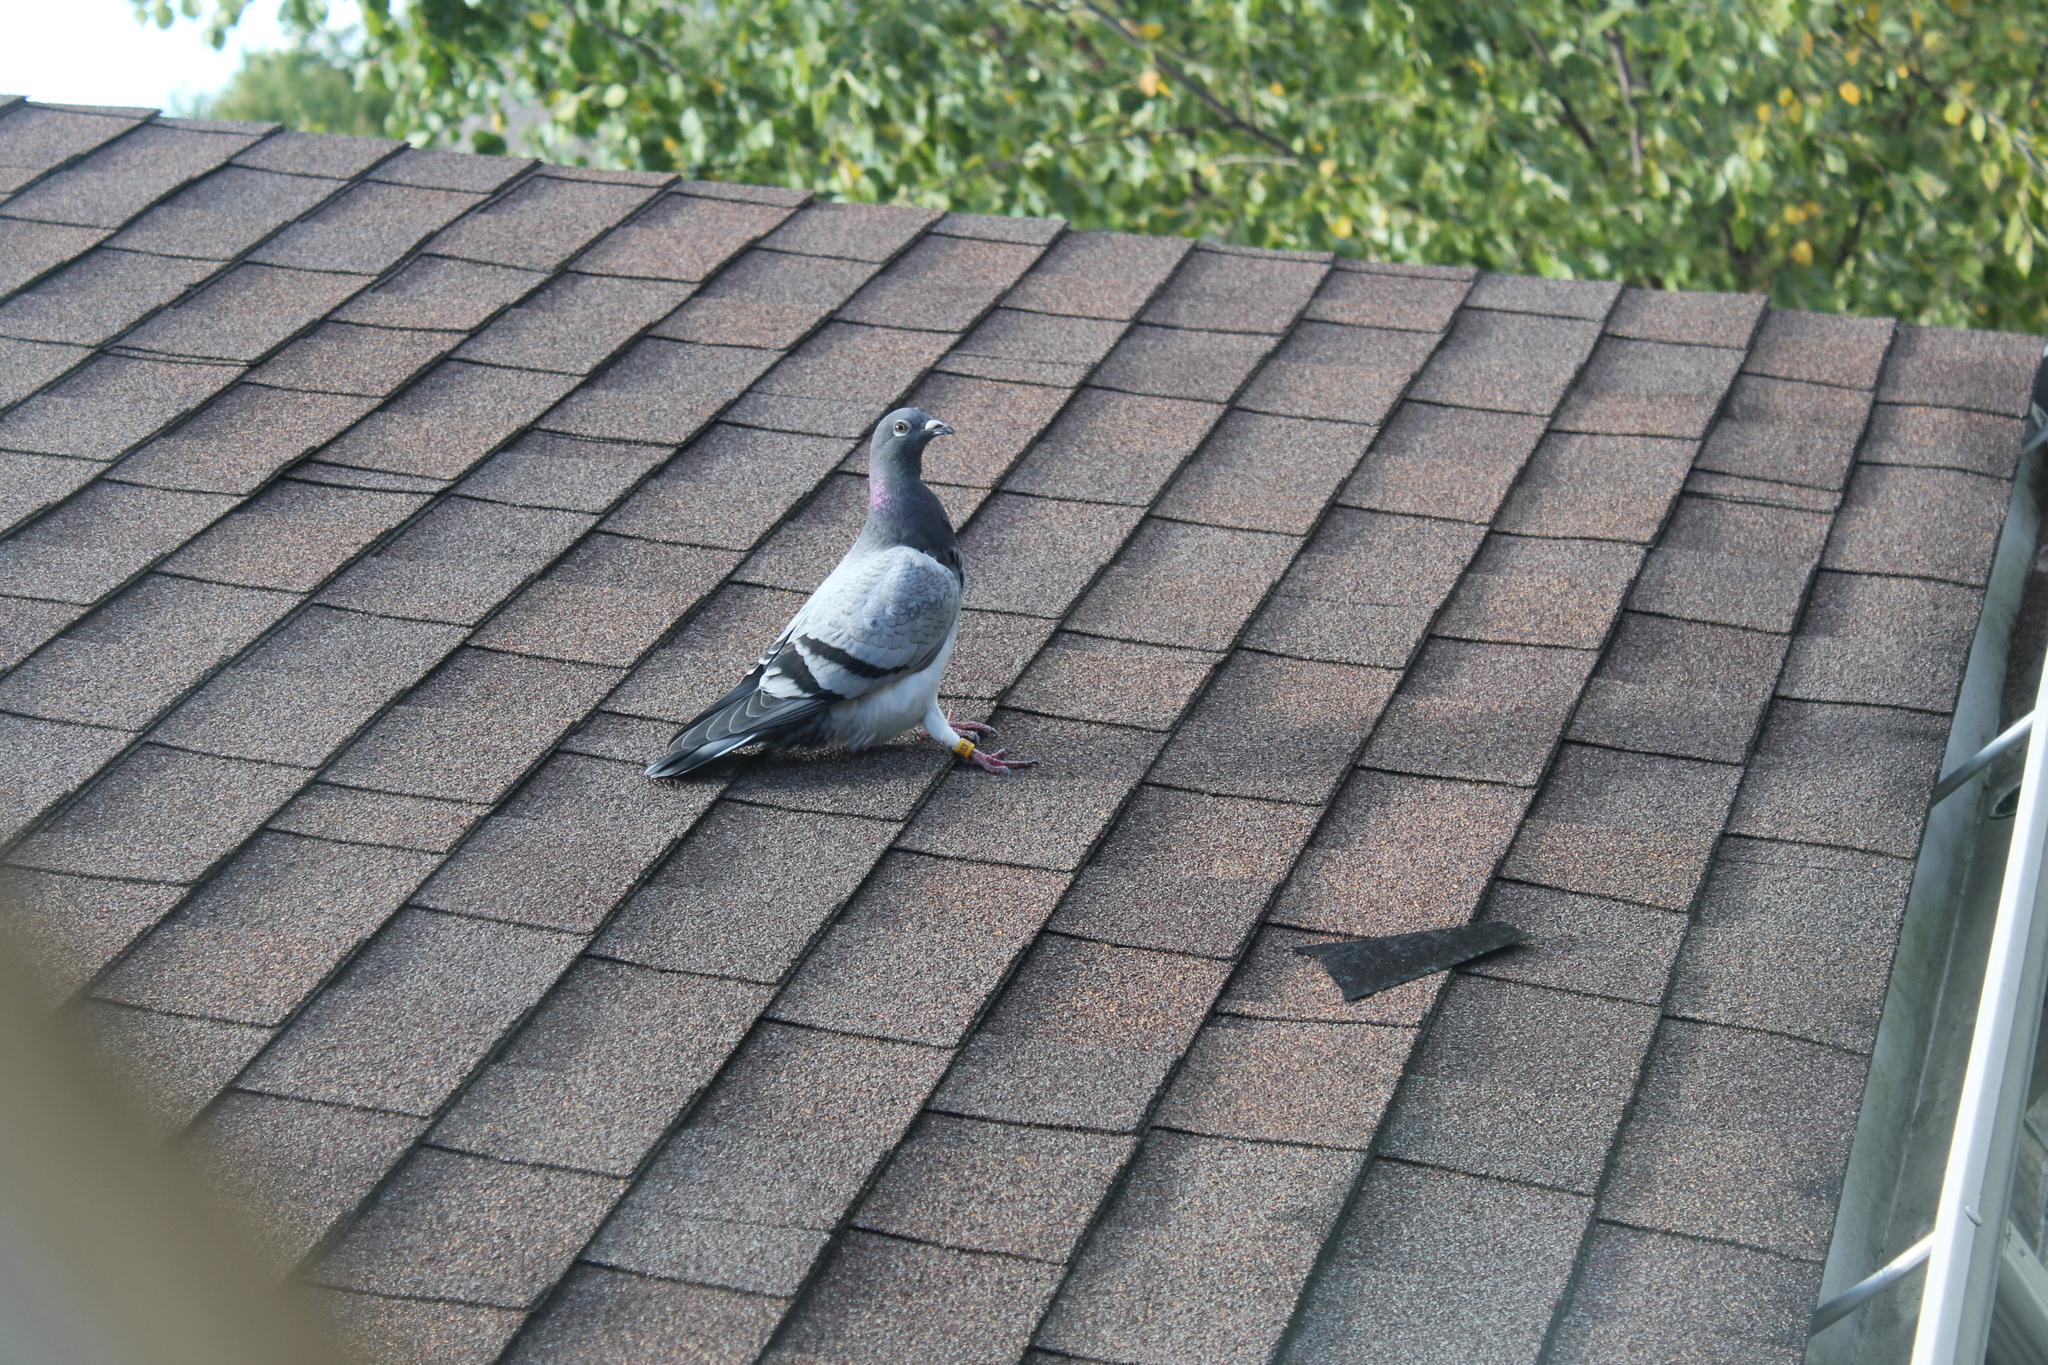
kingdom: Animalia
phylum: Chordata
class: Aves
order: Columbiformes
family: Columbidae
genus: Columba
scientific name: Columba livia
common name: Rock pigeon
